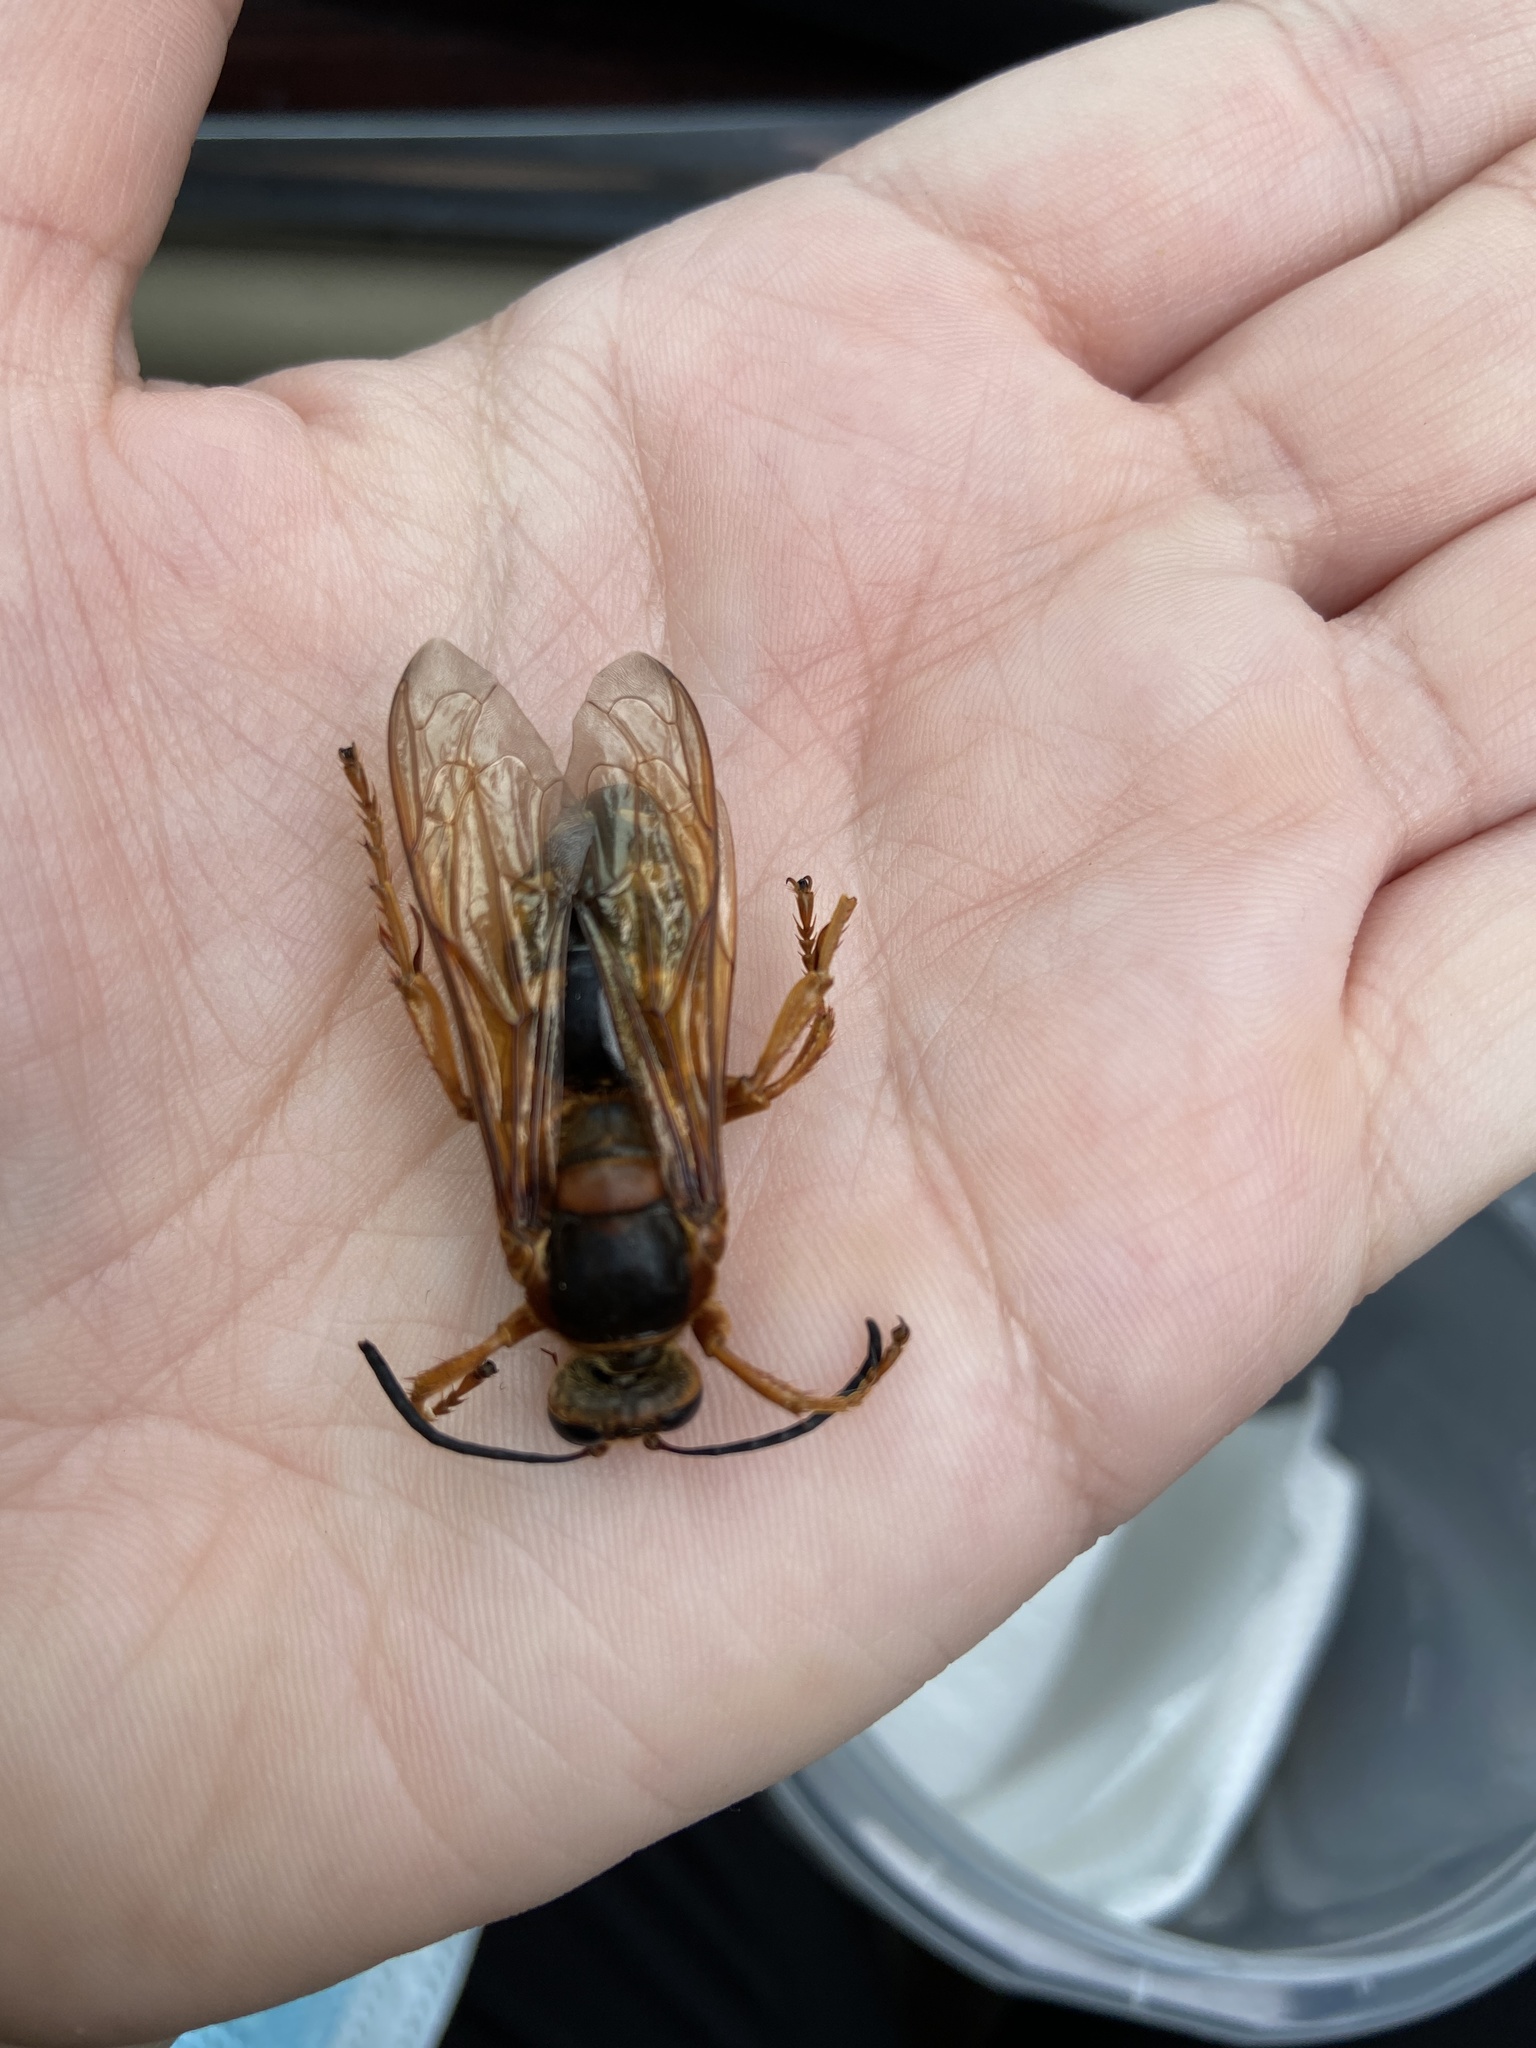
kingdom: Animalia
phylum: Arthropoda
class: Insecta
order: Hymenoptera
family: Crabronidae
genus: Sphecius
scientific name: Sphecius speciosus
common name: Cicada killer
